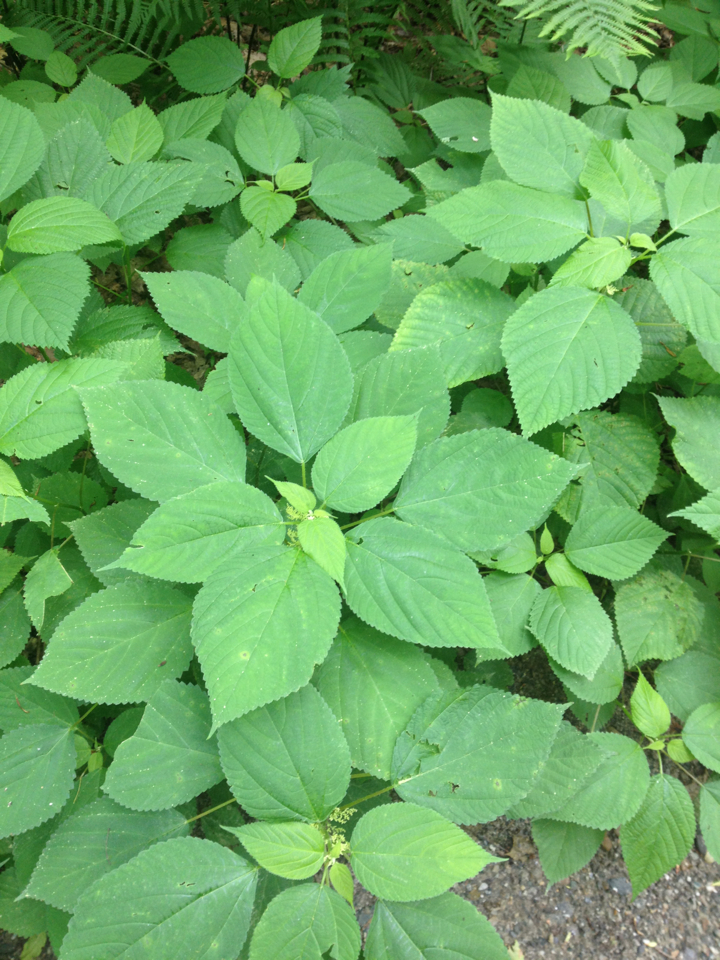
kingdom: Plantae
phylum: Tracheophyta
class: Magnoliopsida
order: Rosales
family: Urticaceae
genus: Laportea
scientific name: Laportea canadensis
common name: Canada nettle
